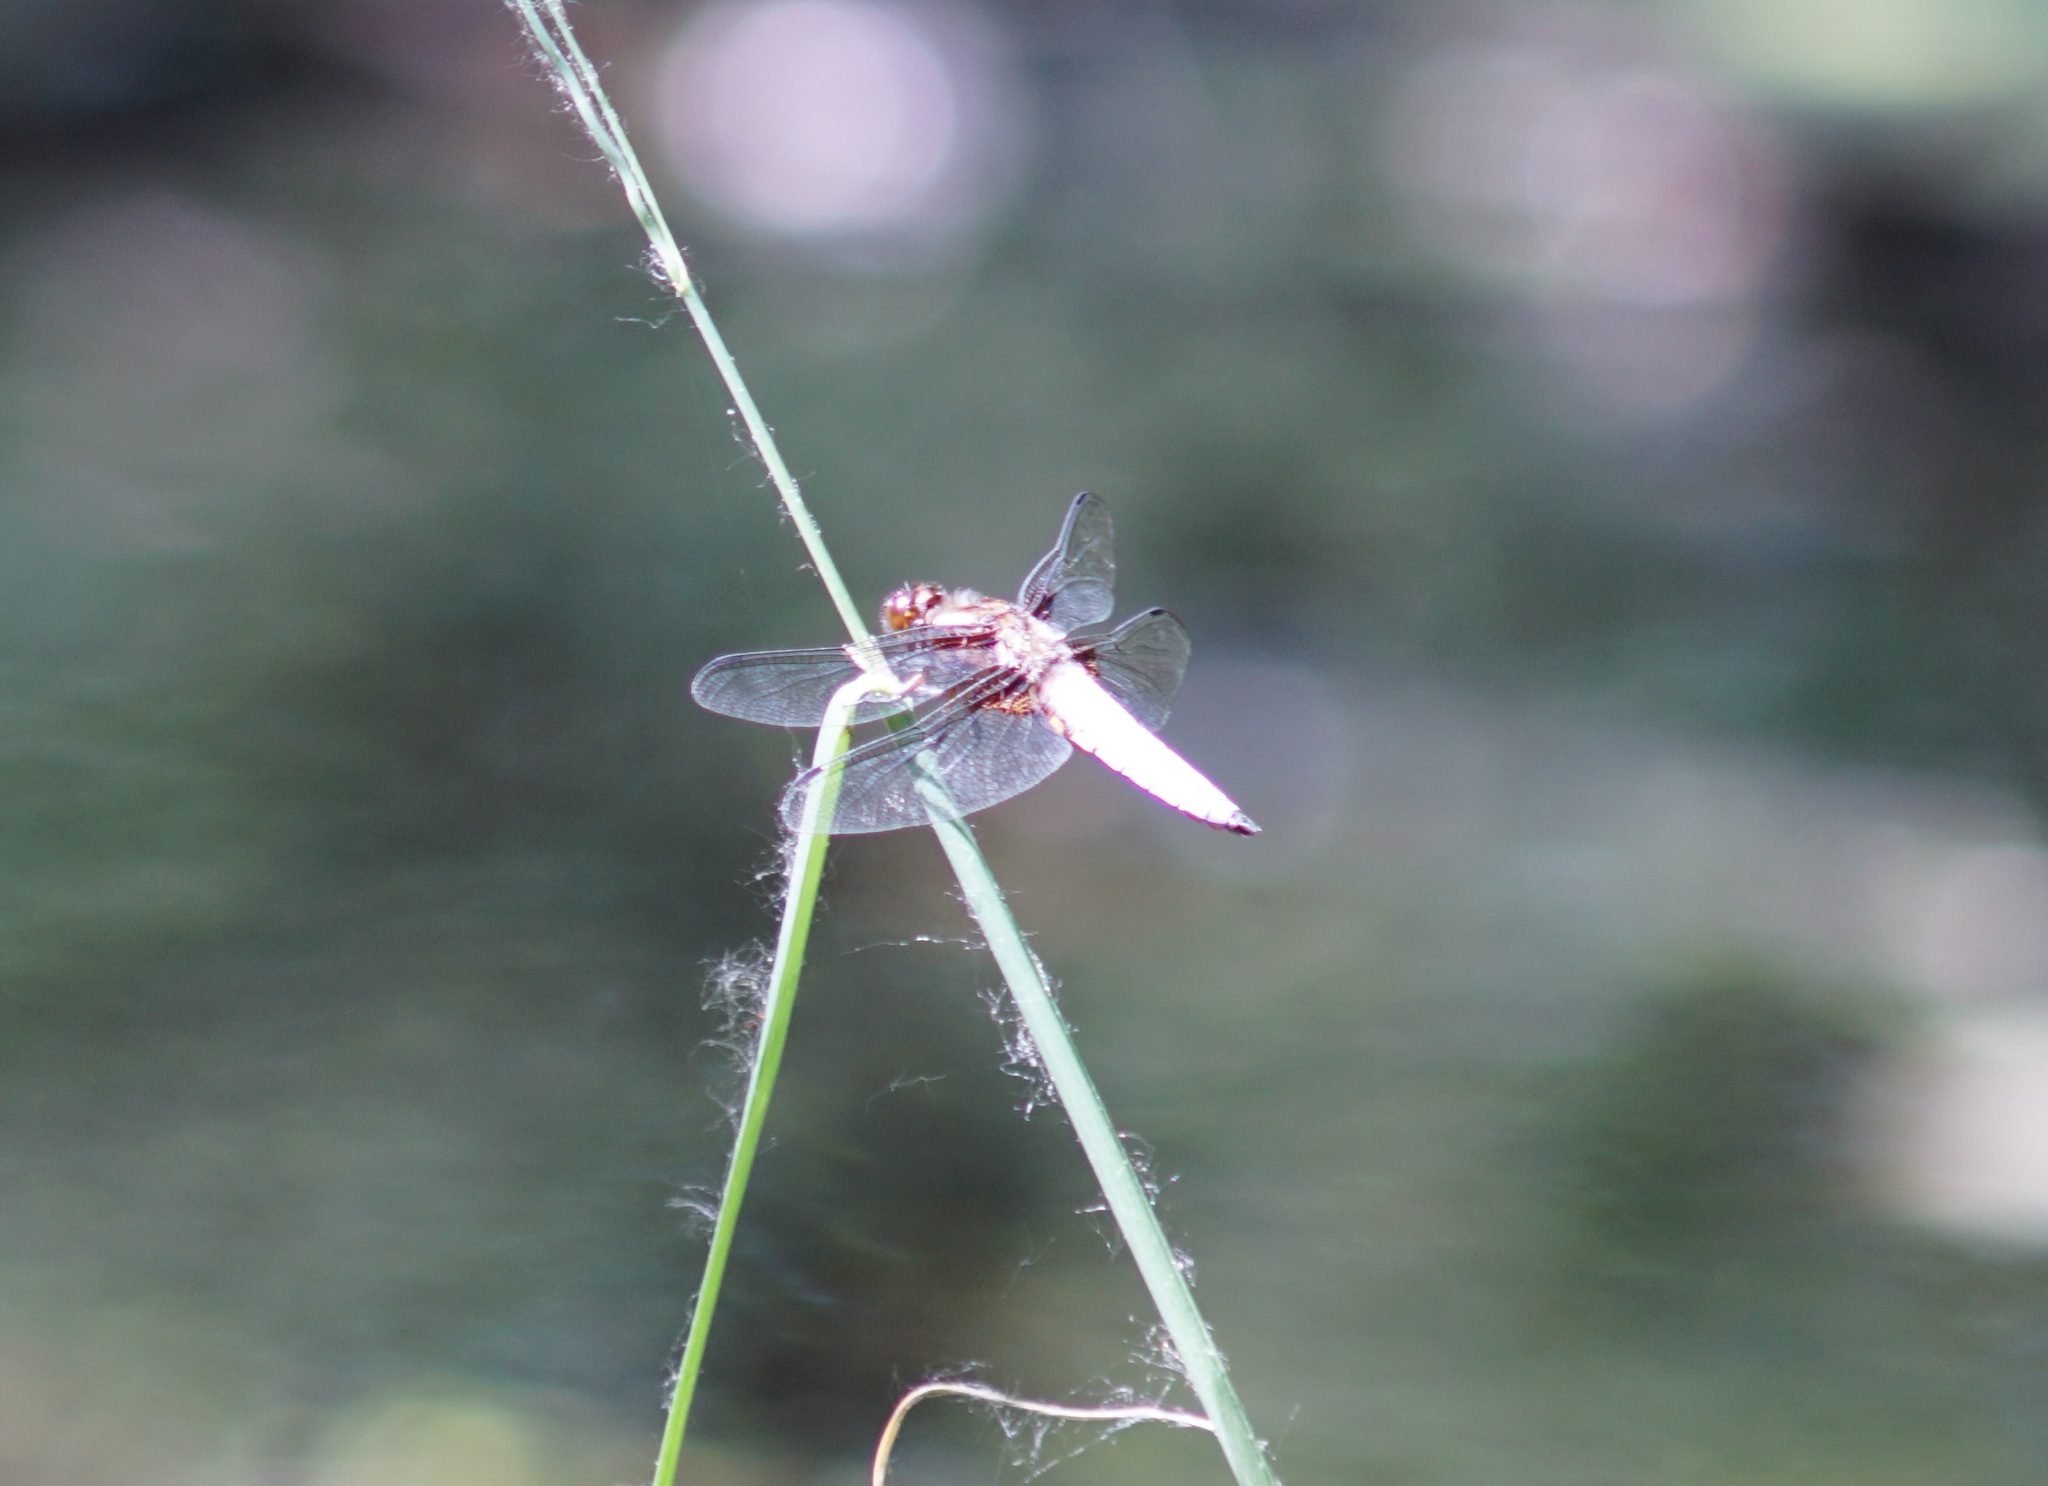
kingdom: Animalia
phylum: Arthropoda
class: Insecta
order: Odonata
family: Libellulidae
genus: Libellula
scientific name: Libellula depressa
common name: Broad-bodied chaser
